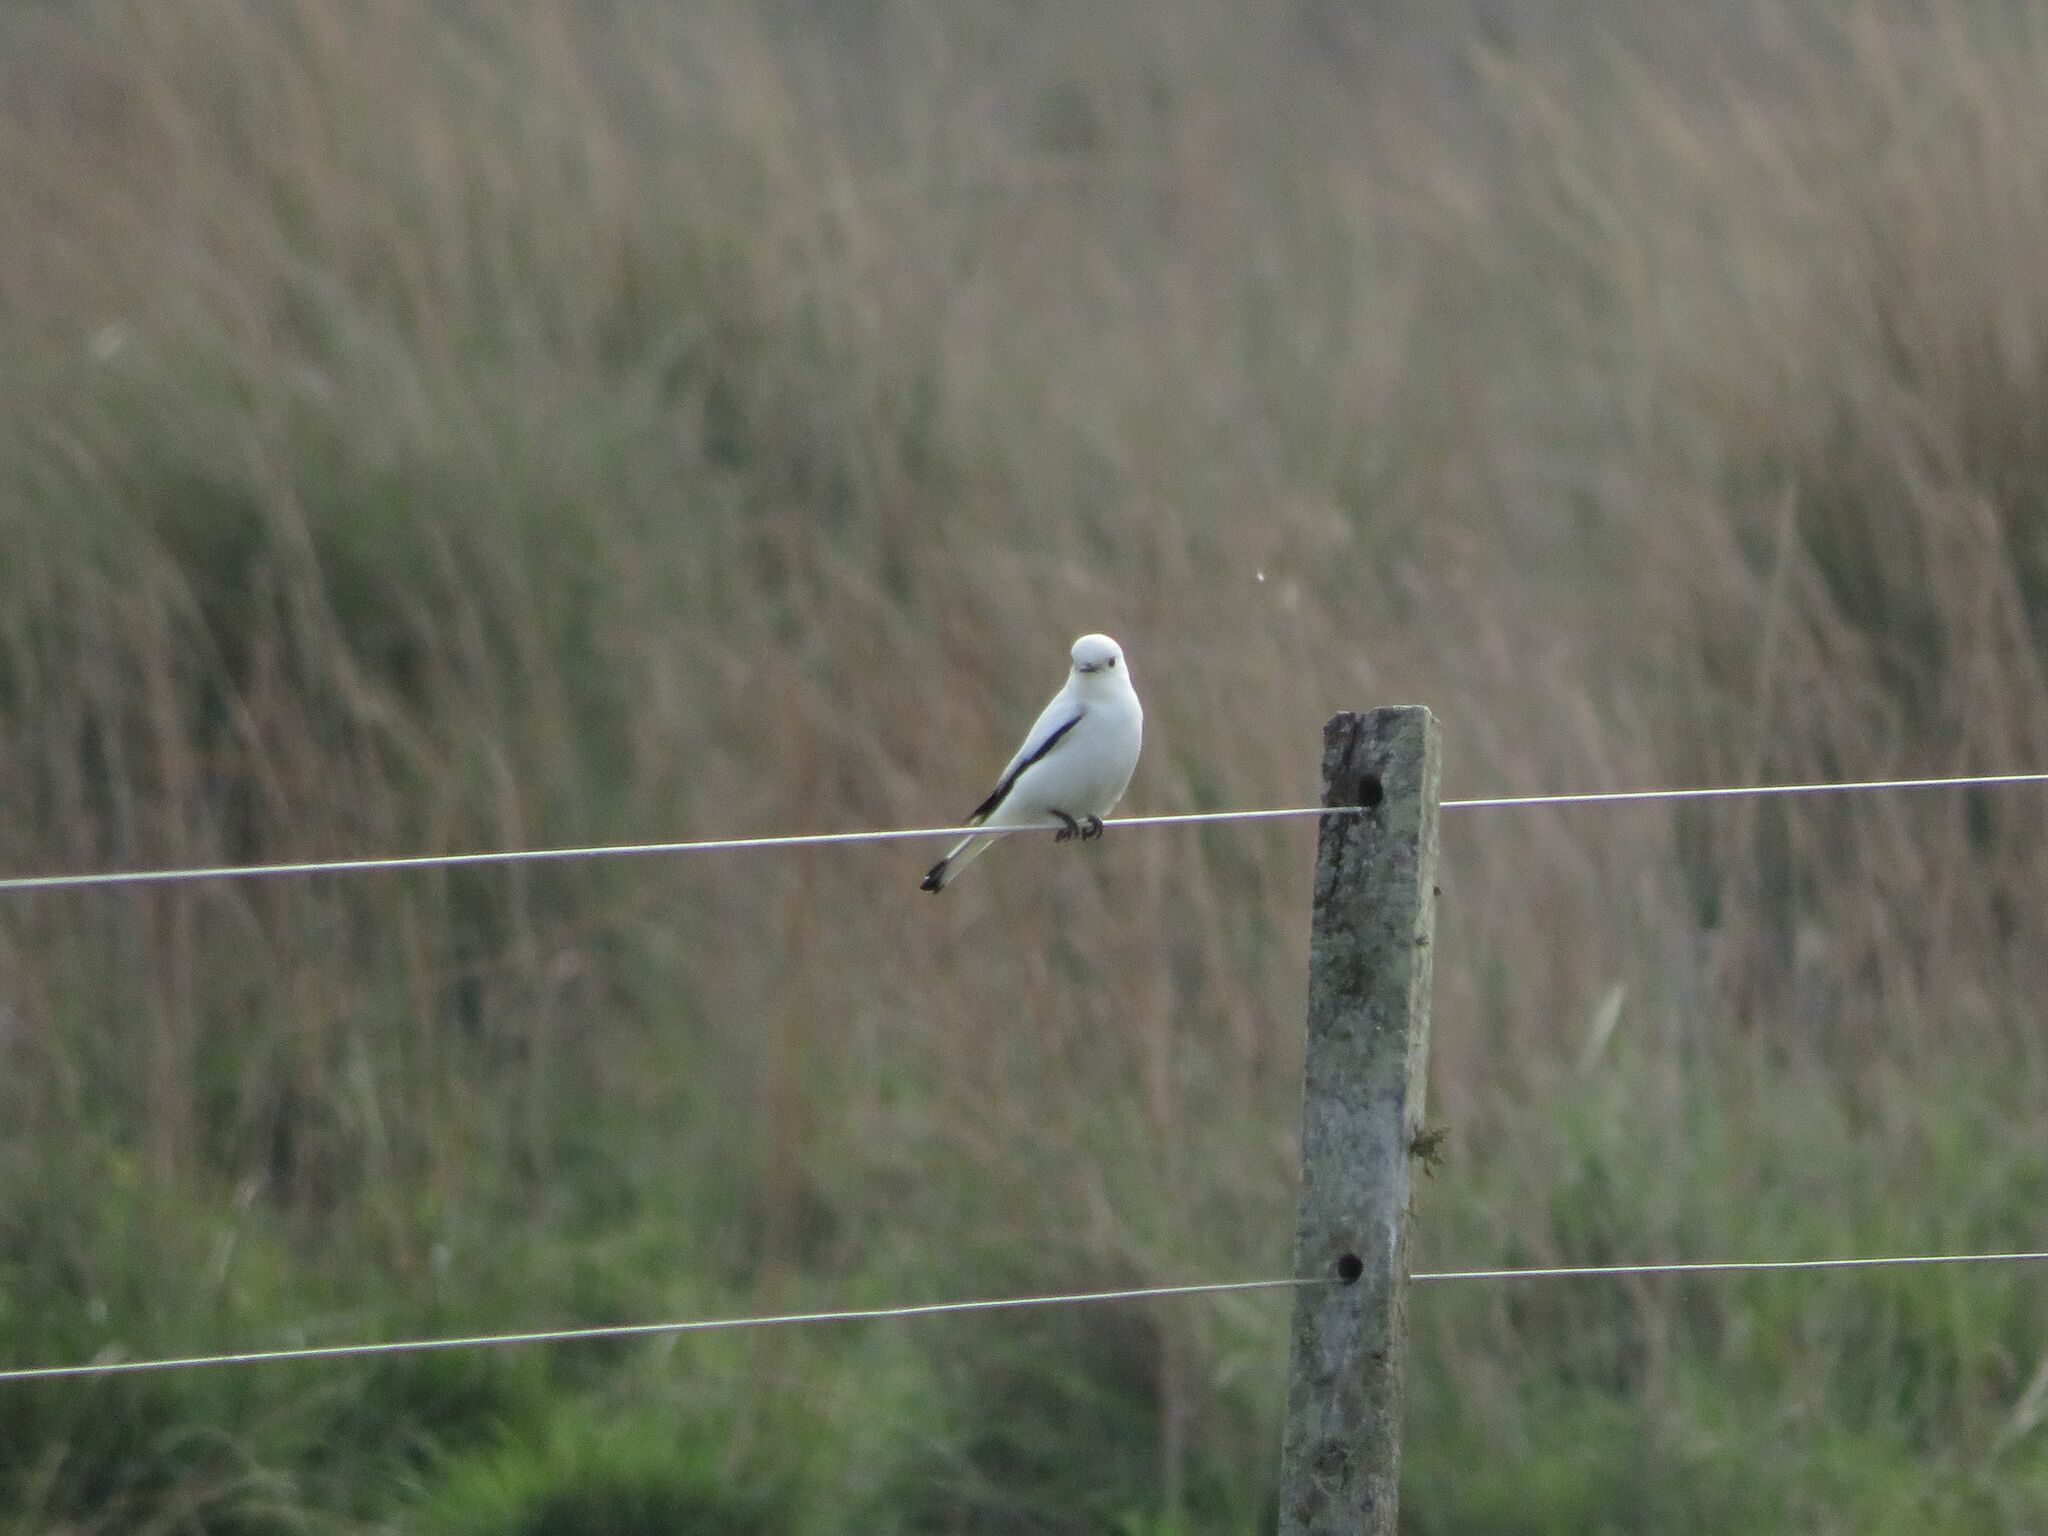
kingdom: Animalia
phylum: Chordata
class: Aves
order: Passeriformes
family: Tyrannidae
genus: Xolmis
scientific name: Xolmis irupero
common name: White monjita
